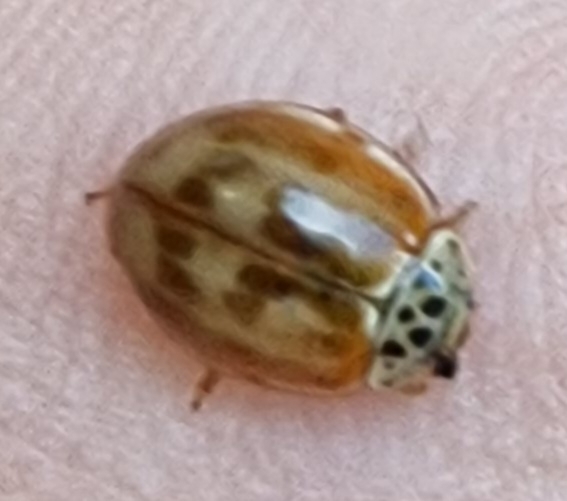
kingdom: Animalia
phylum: Arthropoda
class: Insecta
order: Coleoptera
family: Coccinellidae
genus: Harmonia
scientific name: Harmonia quadripunctata
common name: Cream-streaked ladybird
